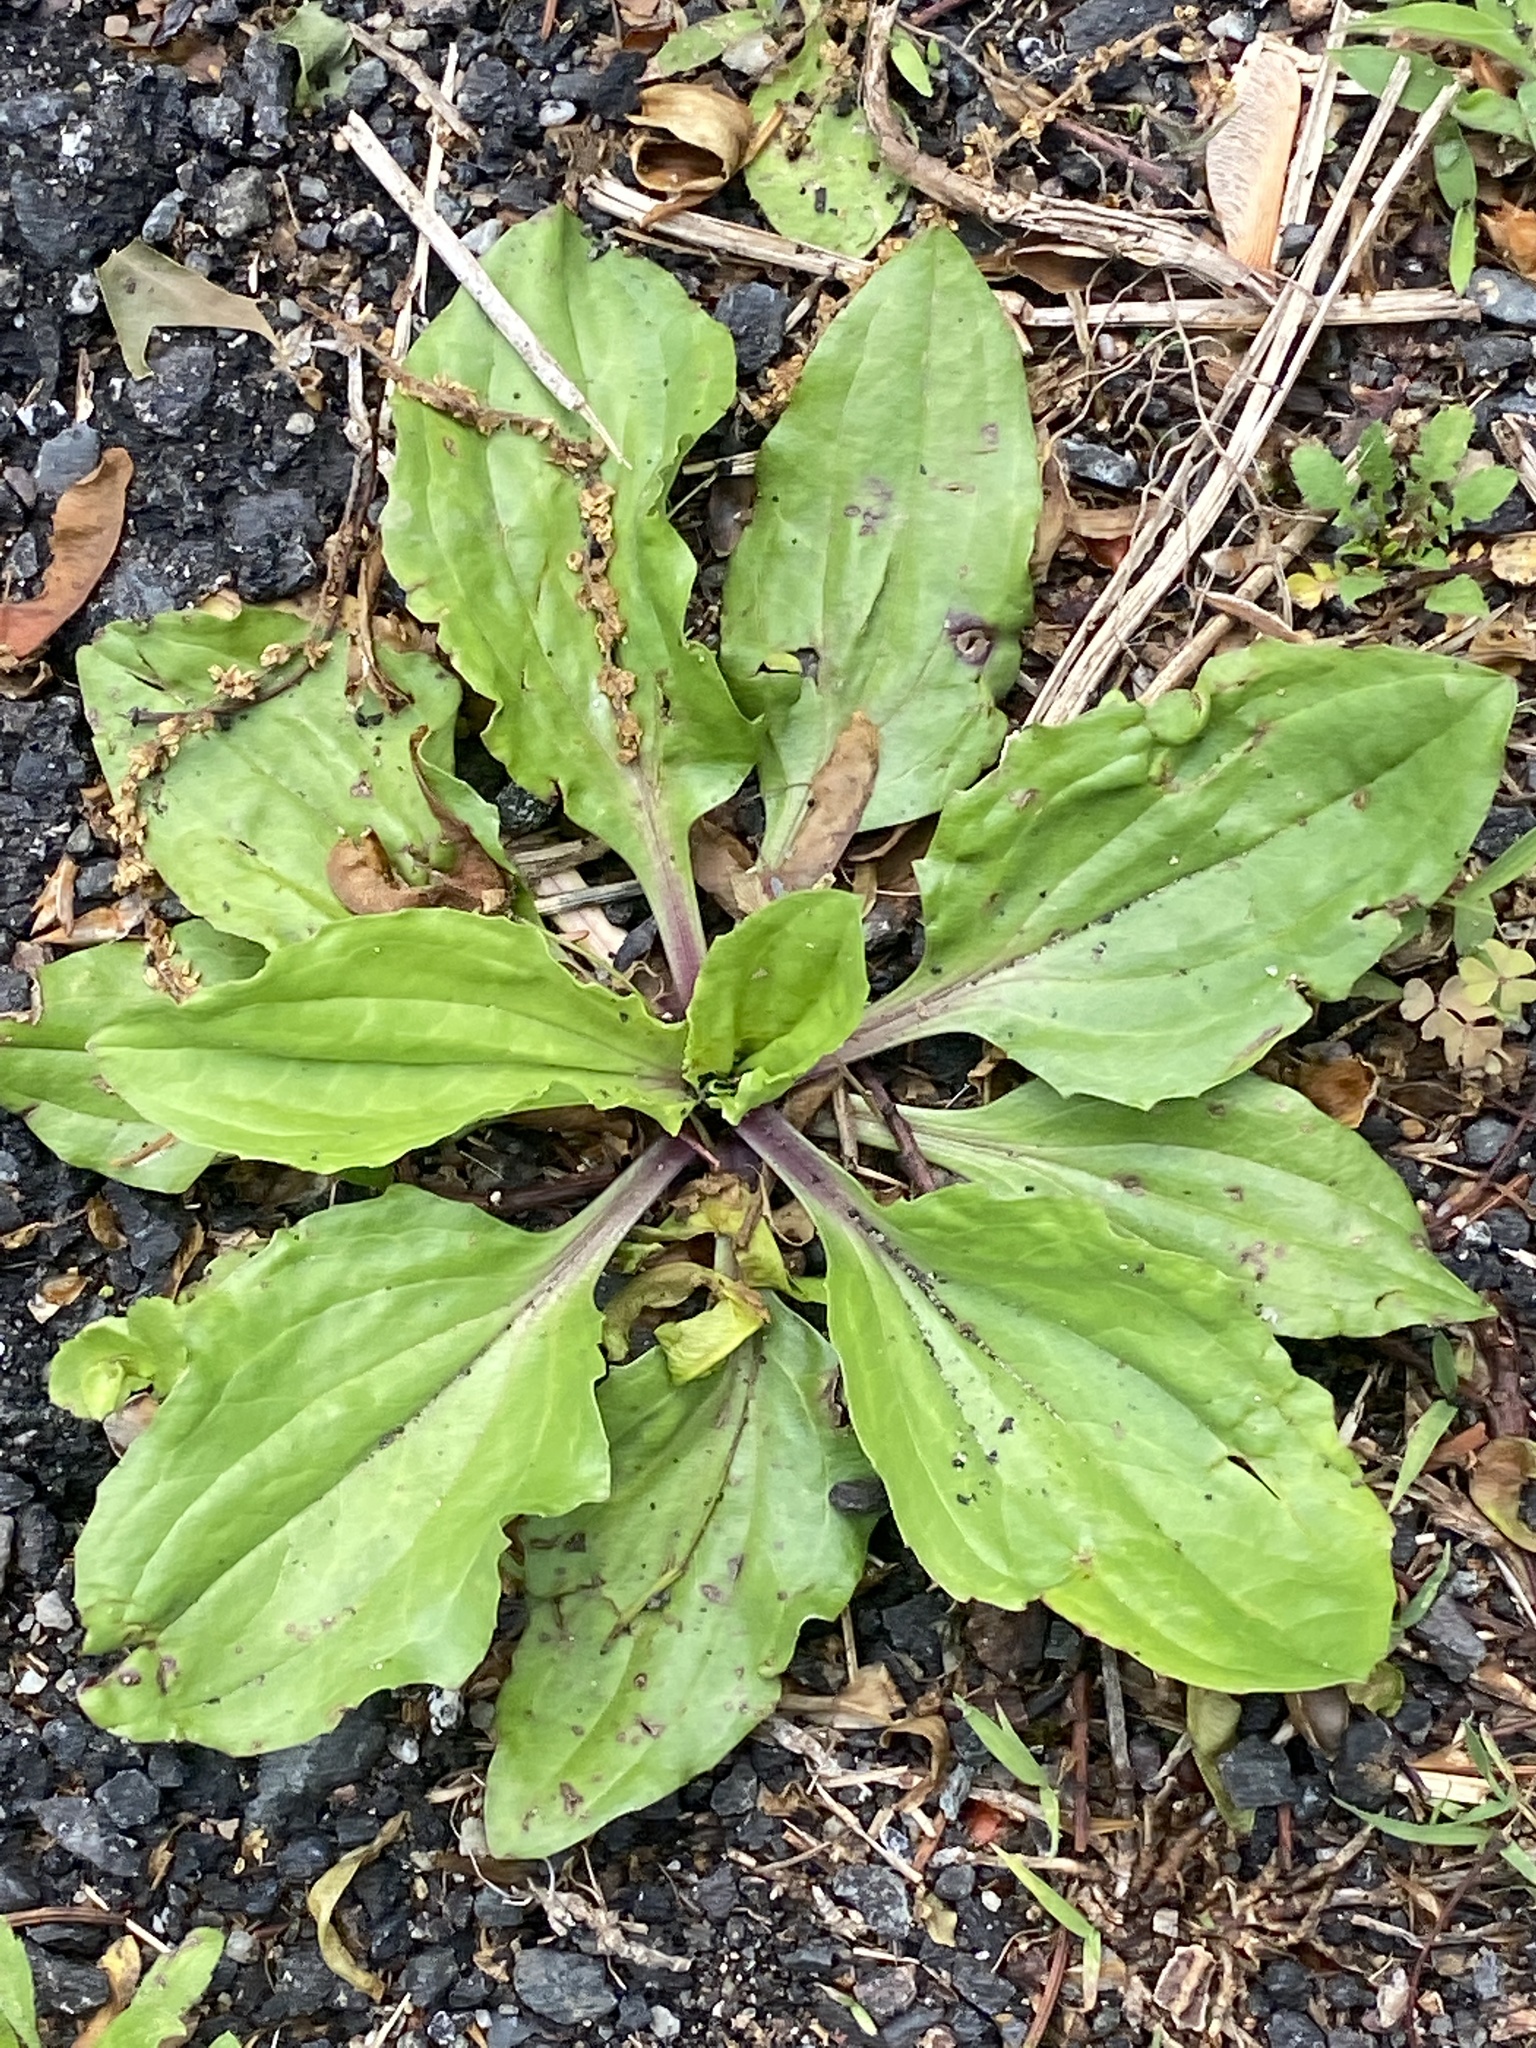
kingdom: Plantae
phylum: Tracheophyta
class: Magnoliopsida
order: Lamiales
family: Plantaginaceae
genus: Plantago
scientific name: Plantago rugelii
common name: American plantain
